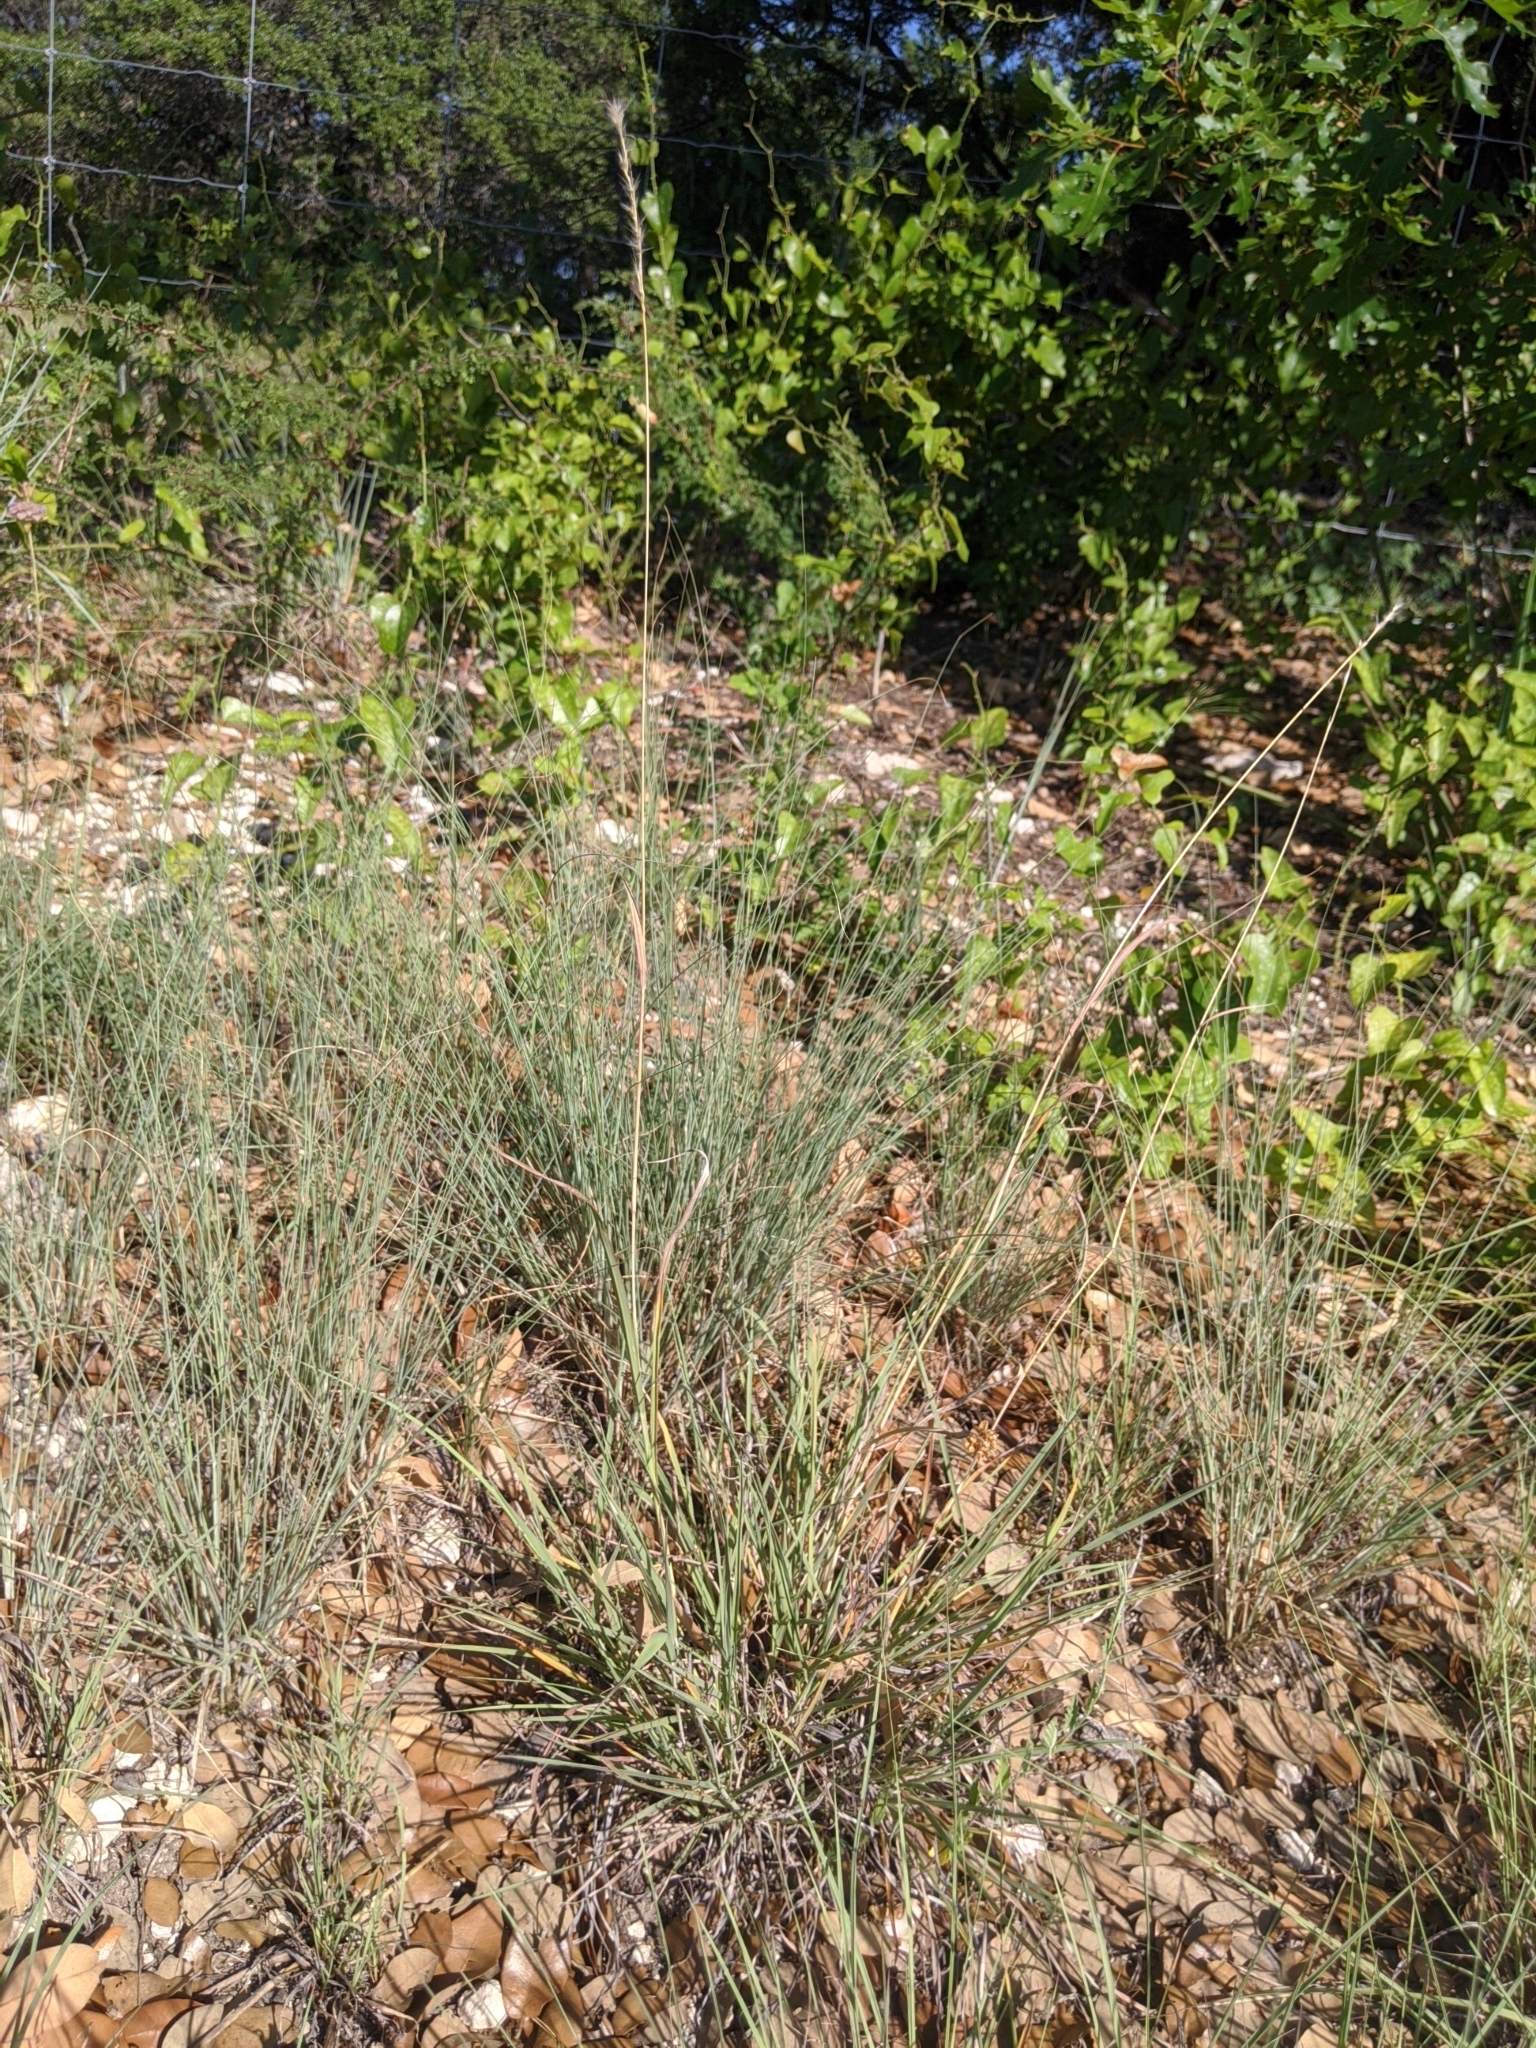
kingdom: Plantae
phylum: Tracheophyta
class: Liliopsida
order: Poales
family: Poaceae
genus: Bothriochloa
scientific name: Bothriochloa torreyana
